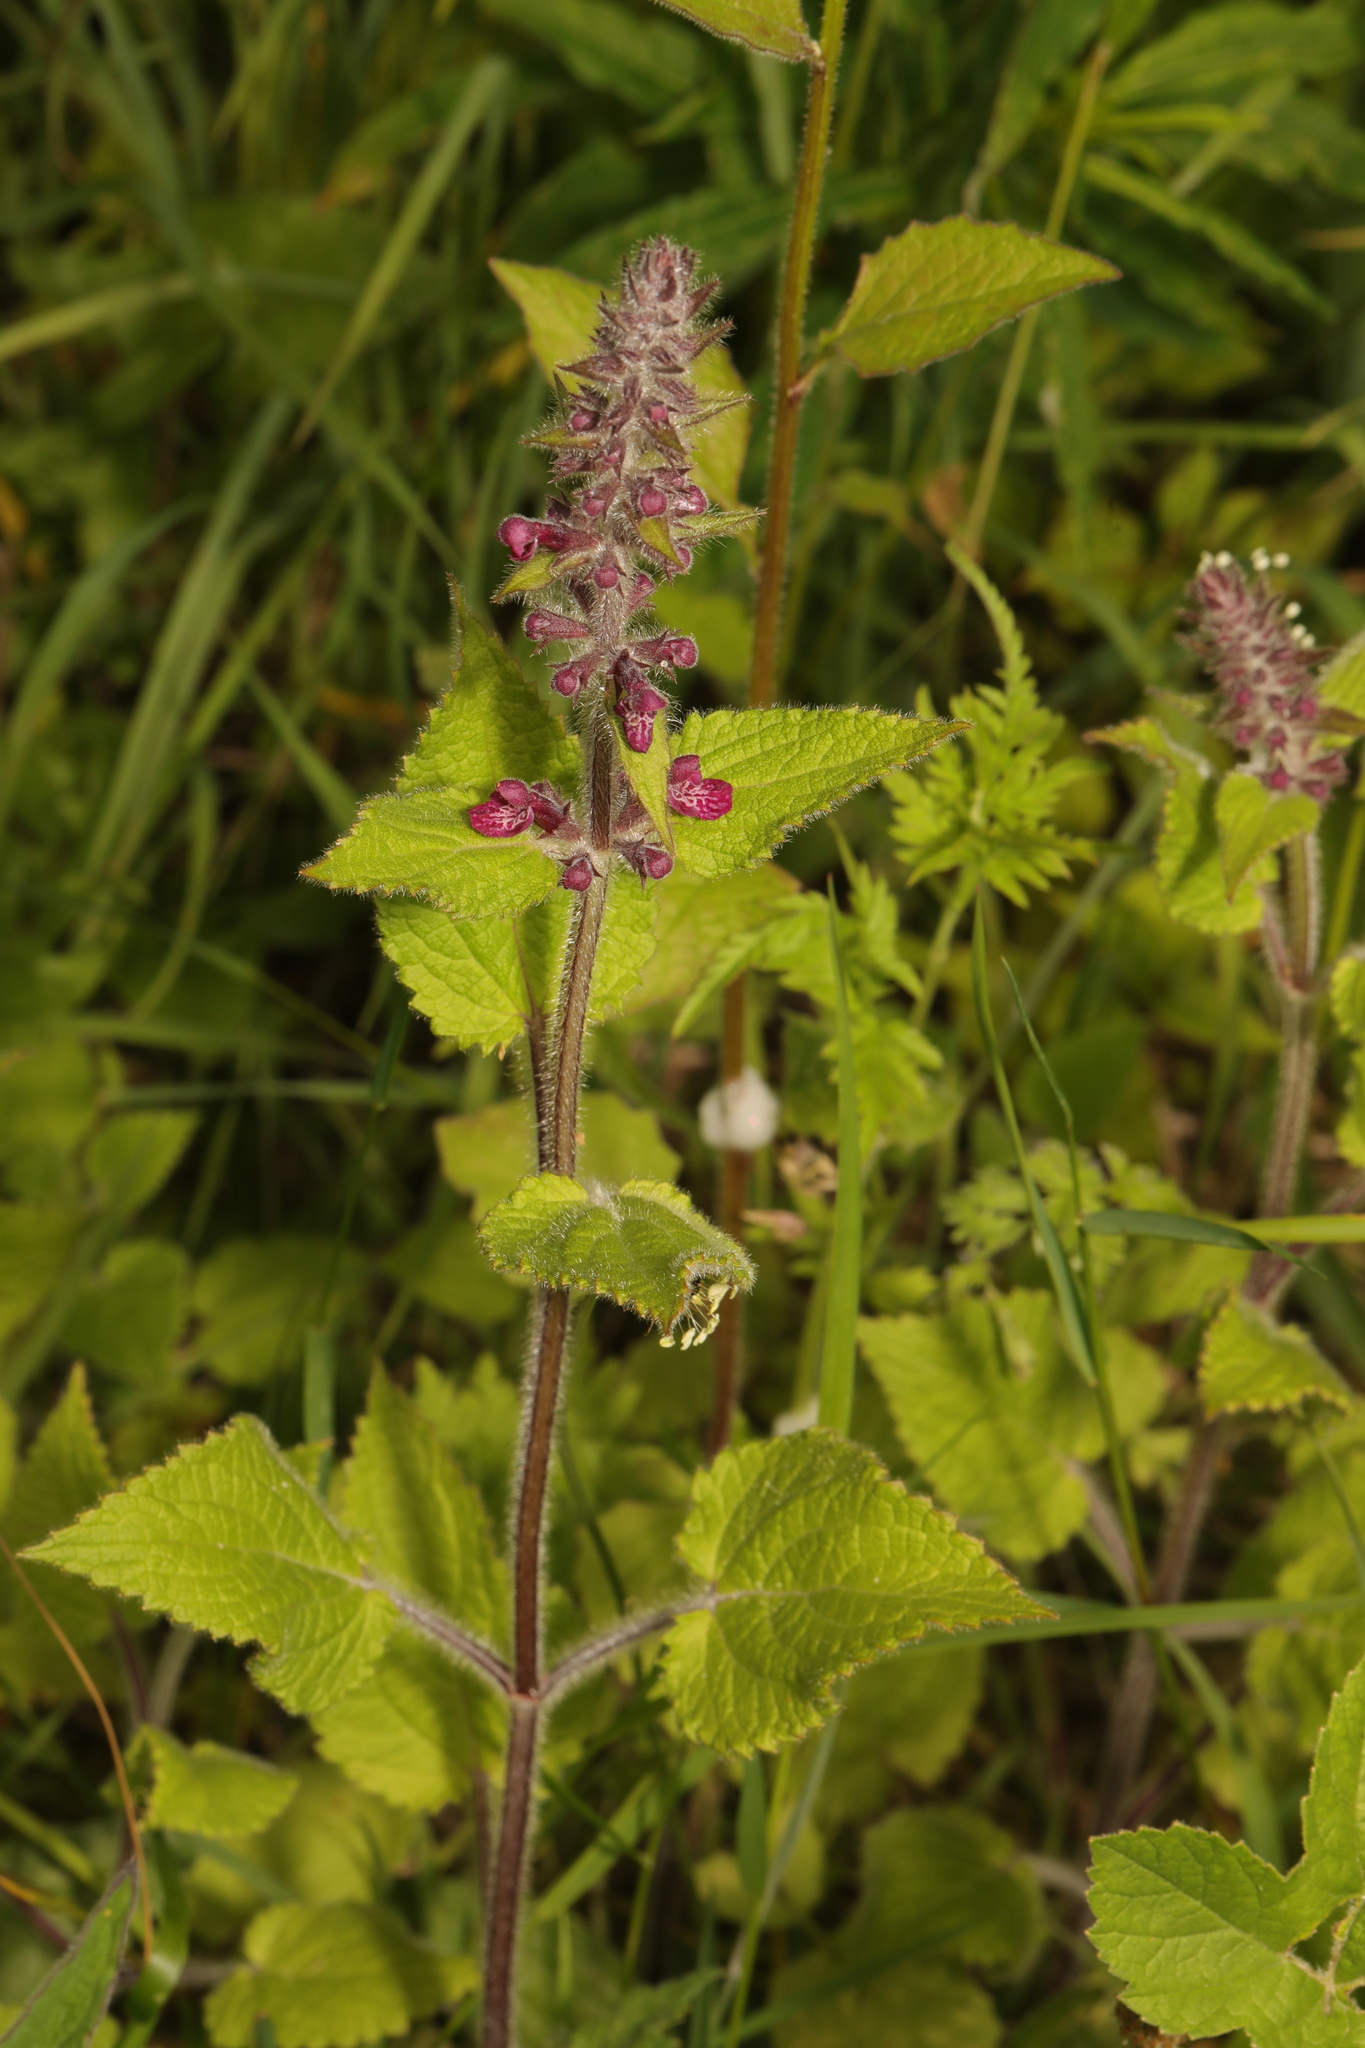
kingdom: Plantae
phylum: Tracheophyta
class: Magnoliopsida
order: Lamiales
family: Lamiaceae
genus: Stachys
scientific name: Stachys sylvatica
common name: Hedge woundwort
